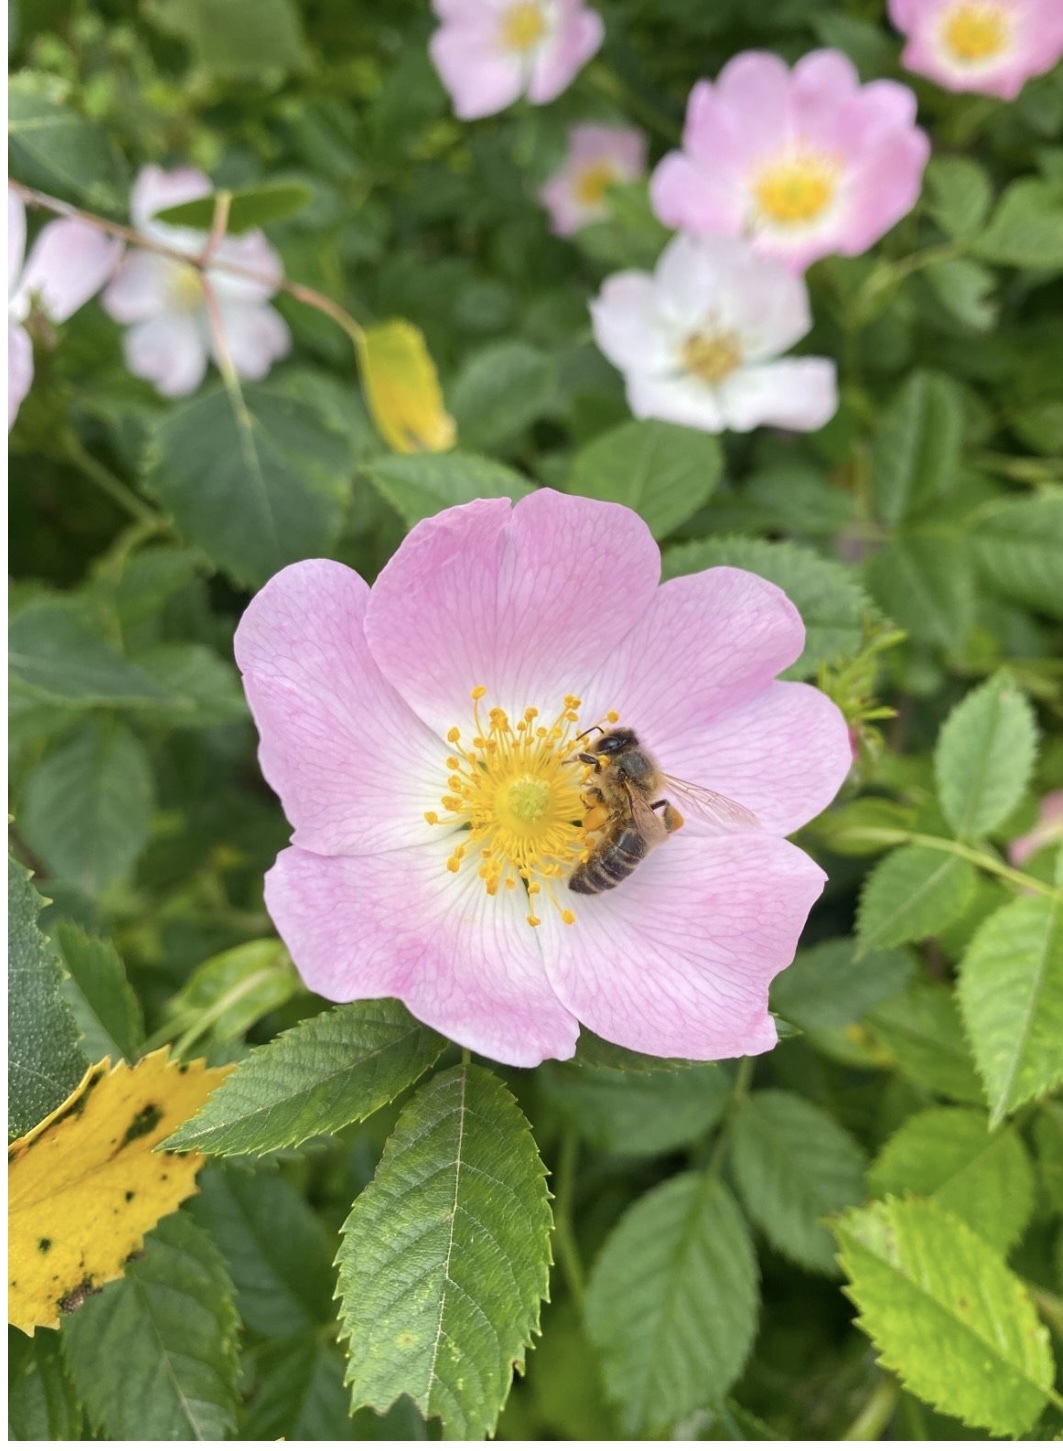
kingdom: Animalia
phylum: Arthropoda
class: Insecta
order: Hymenoptera
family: Apidae
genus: Apis
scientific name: Apis mellifera
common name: Honey bee
